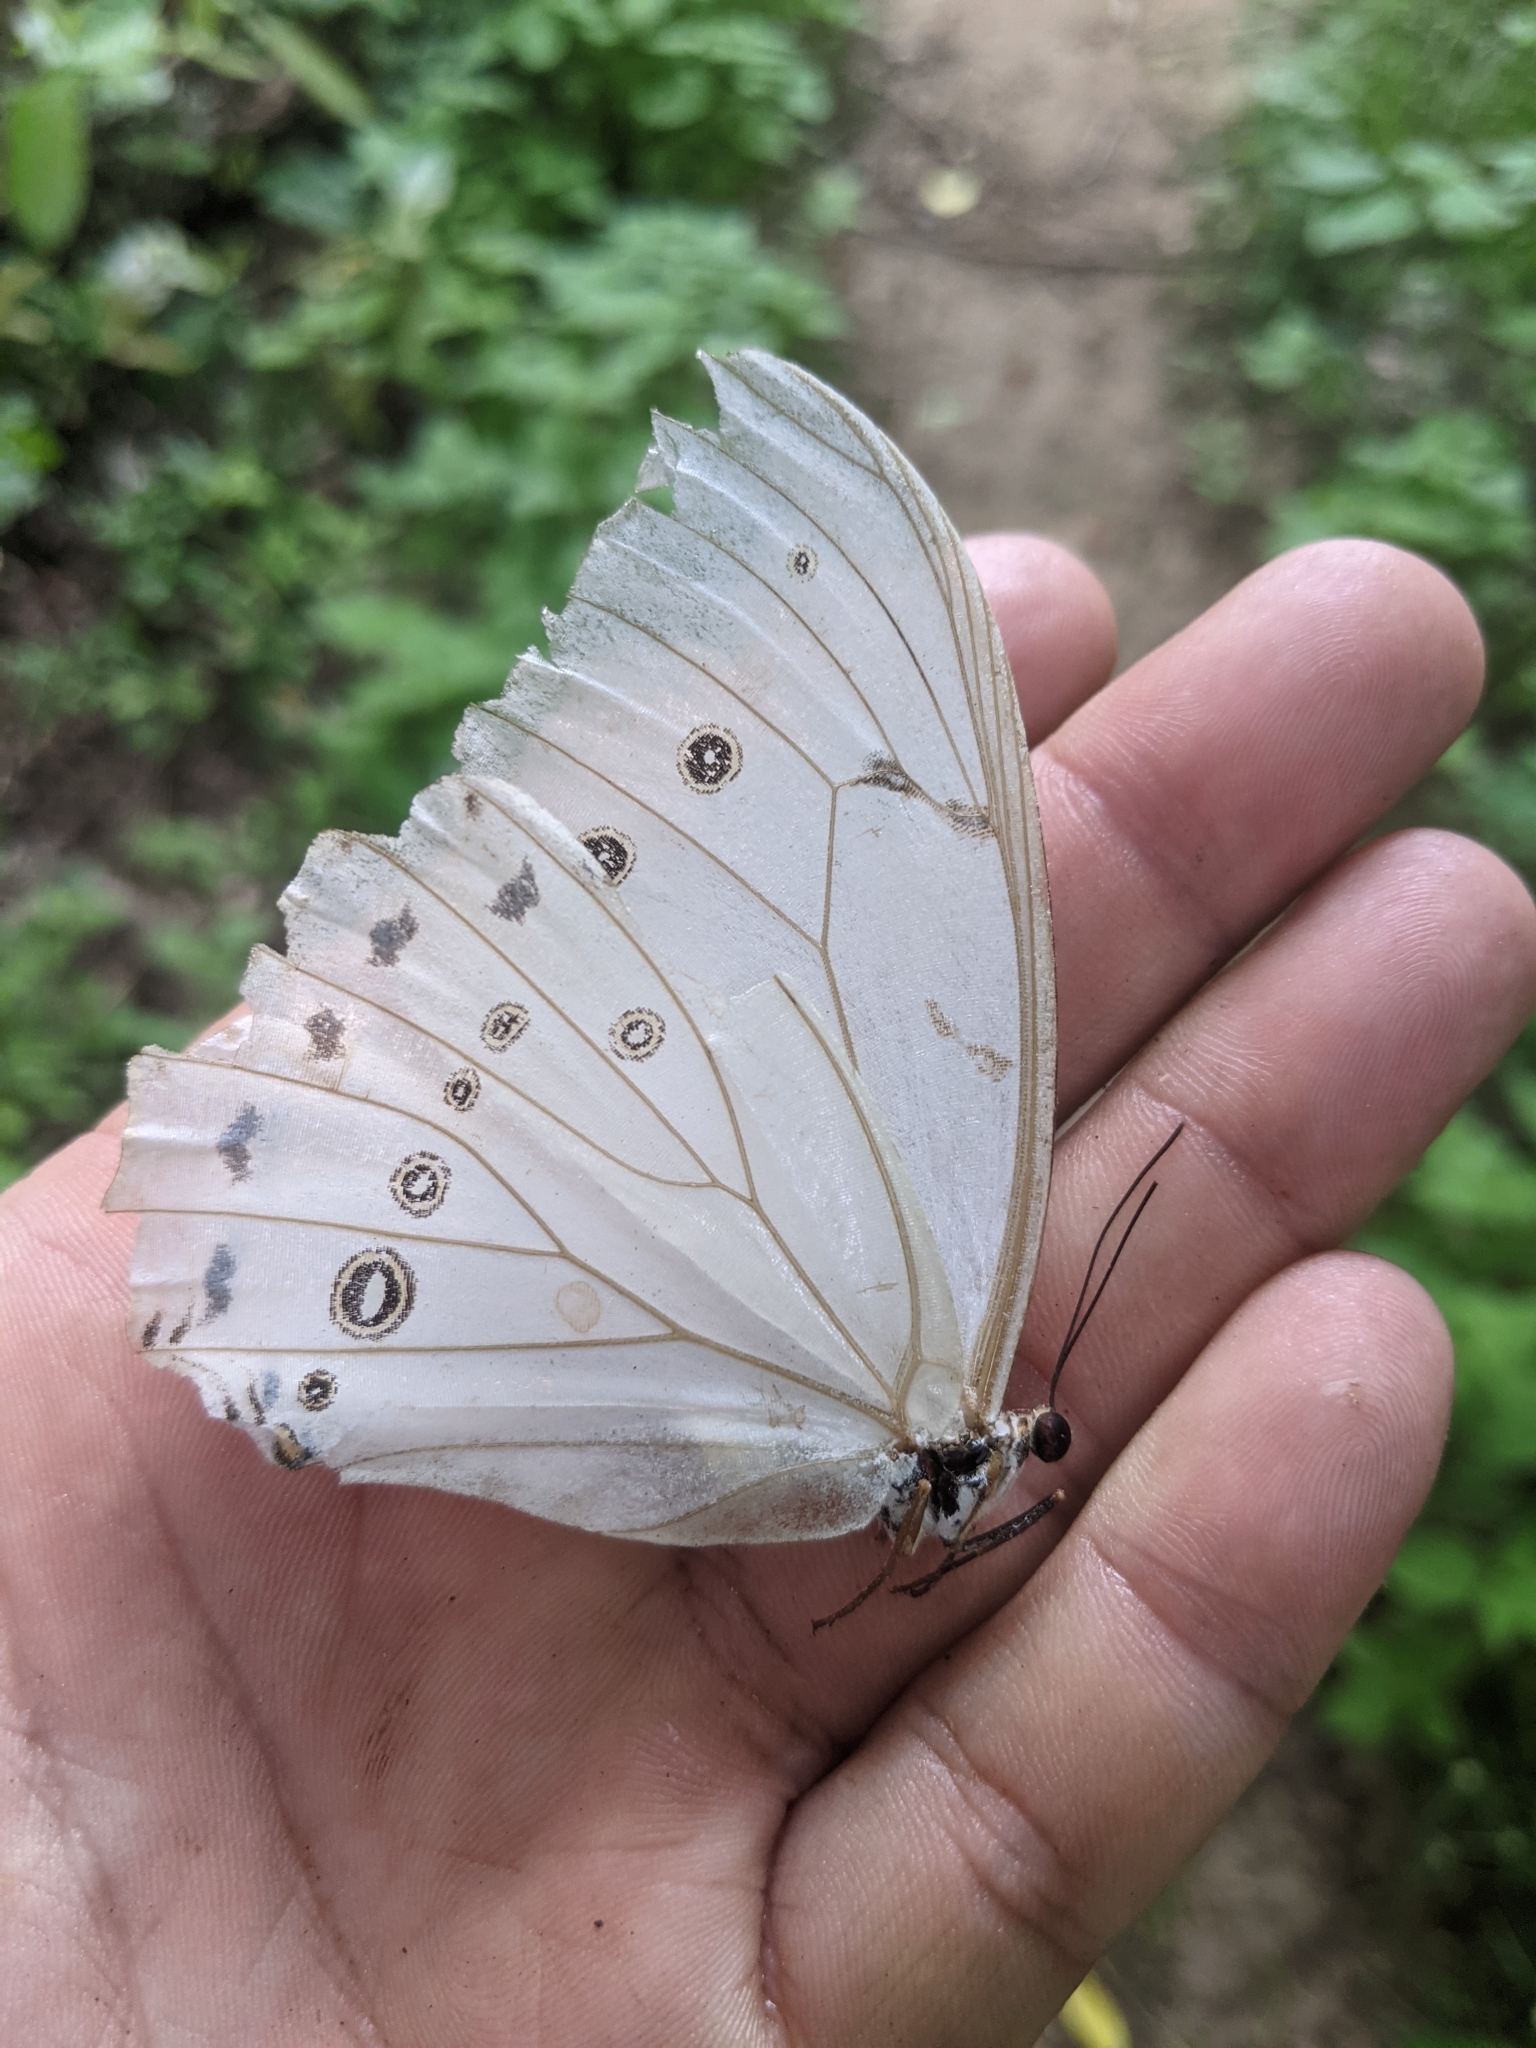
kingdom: Animalia
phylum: Arthropoda
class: Insecta
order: Lepidoptera
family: Nymphalidae
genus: Morpho
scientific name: Morpho polyphemus
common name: White morpho
